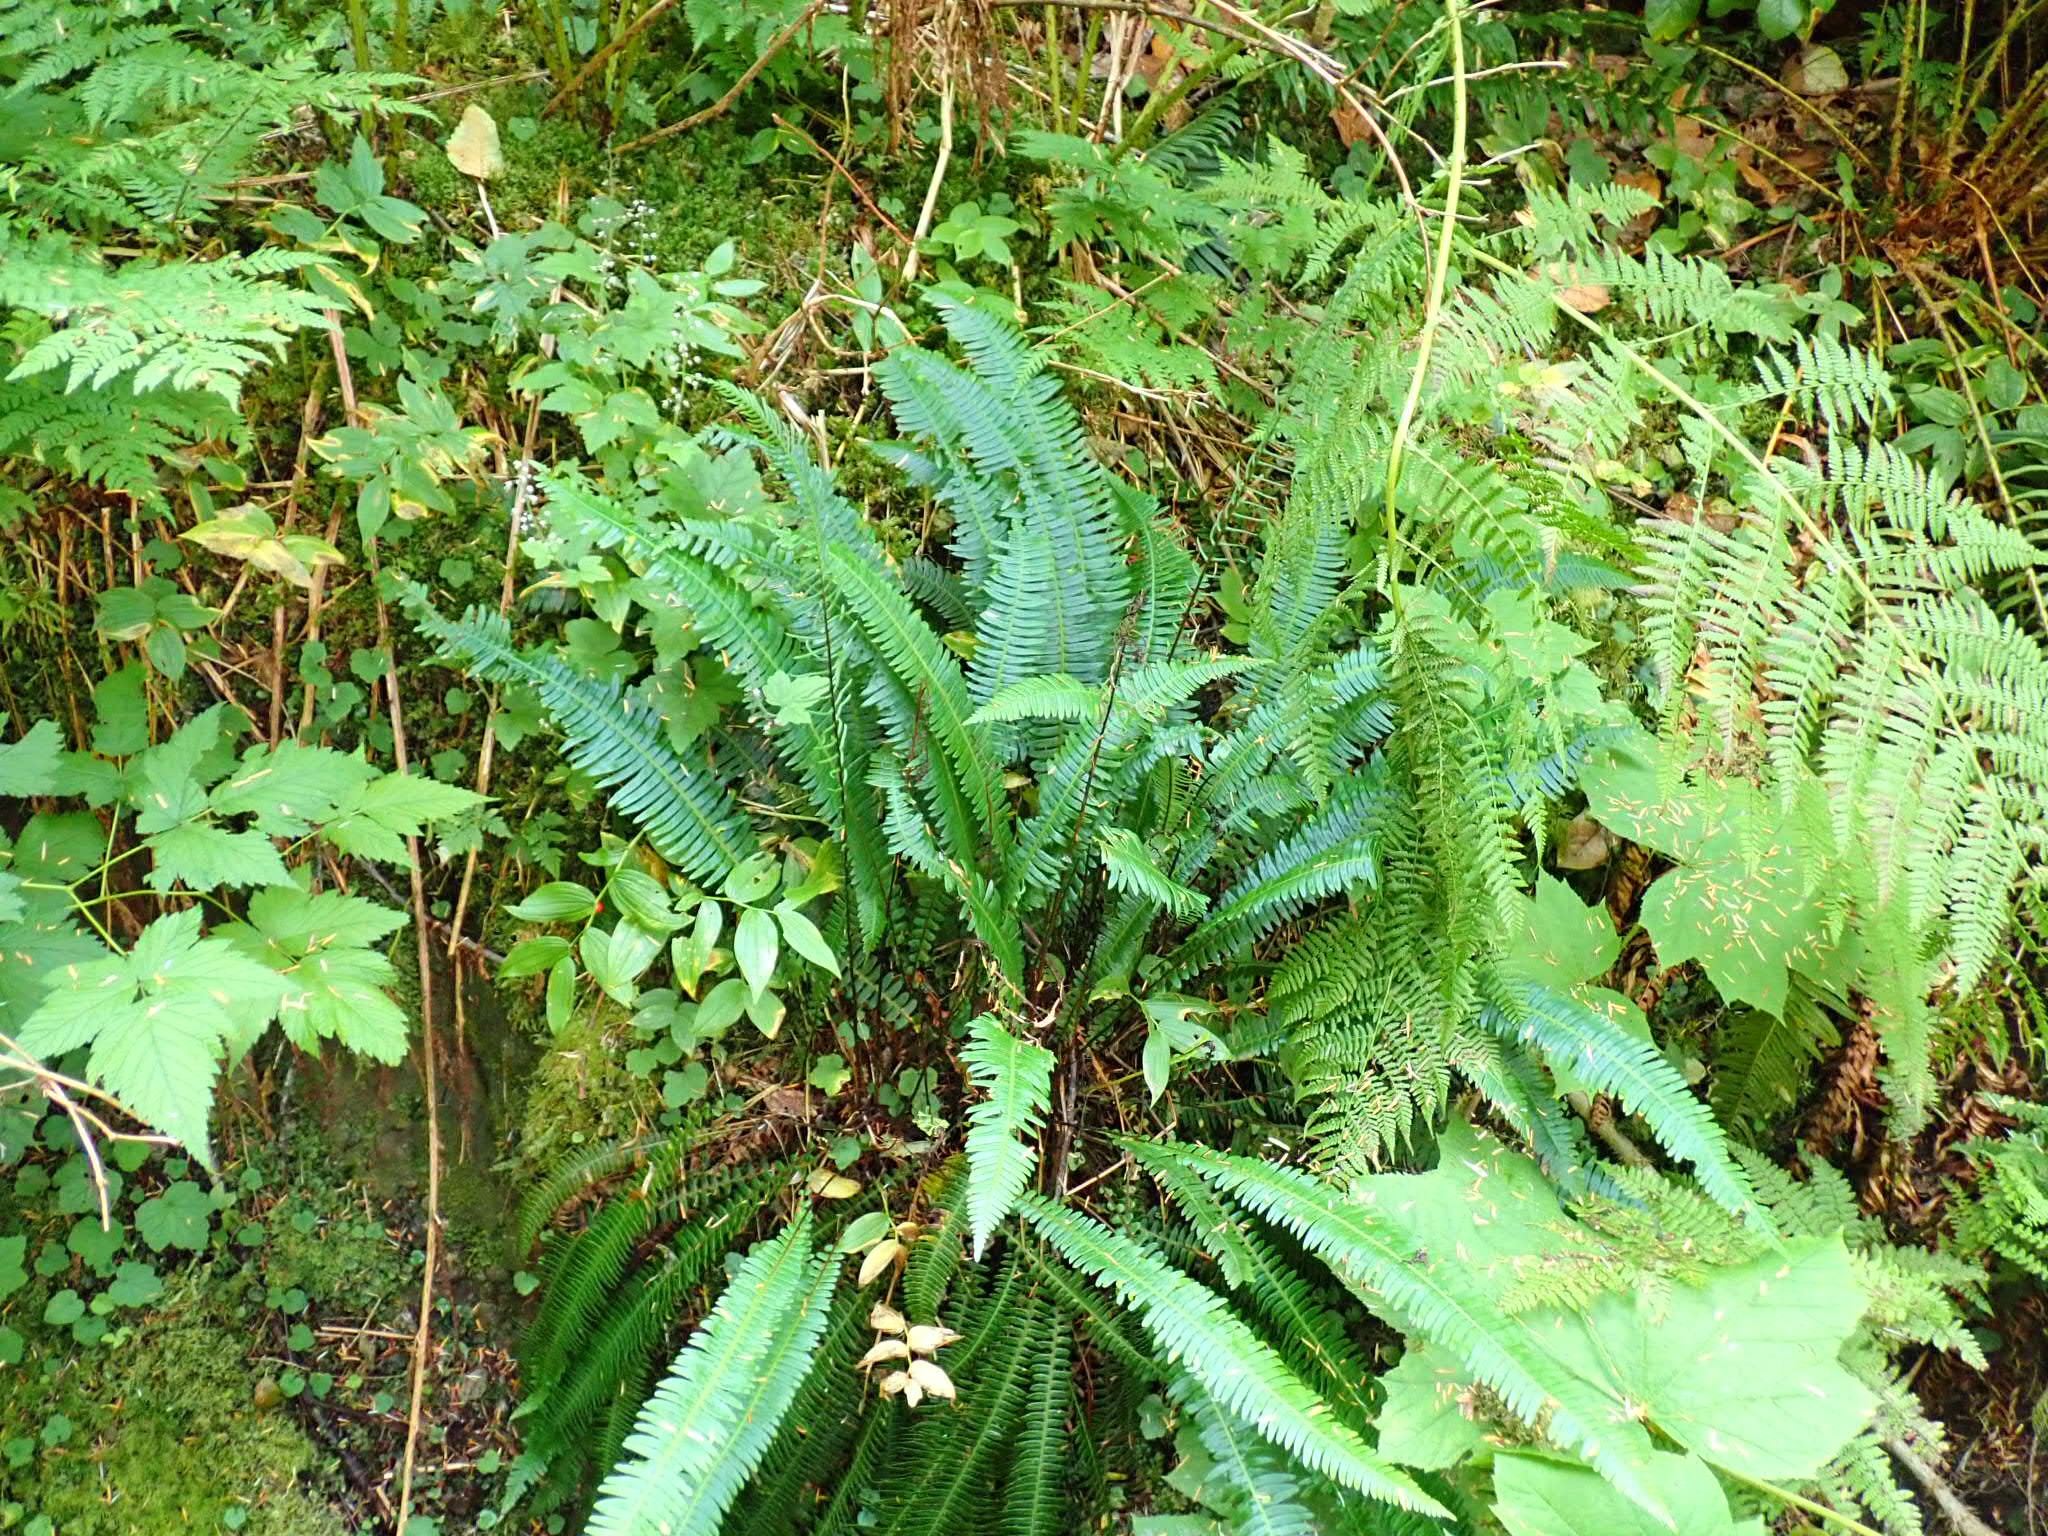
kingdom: Plantae
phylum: Tracheophyta
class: Polypodiopsida
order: Polypodiales
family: Blechnaceae
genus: Struthiopteris
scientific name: Struthiopteris spicant
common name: Deer fern
